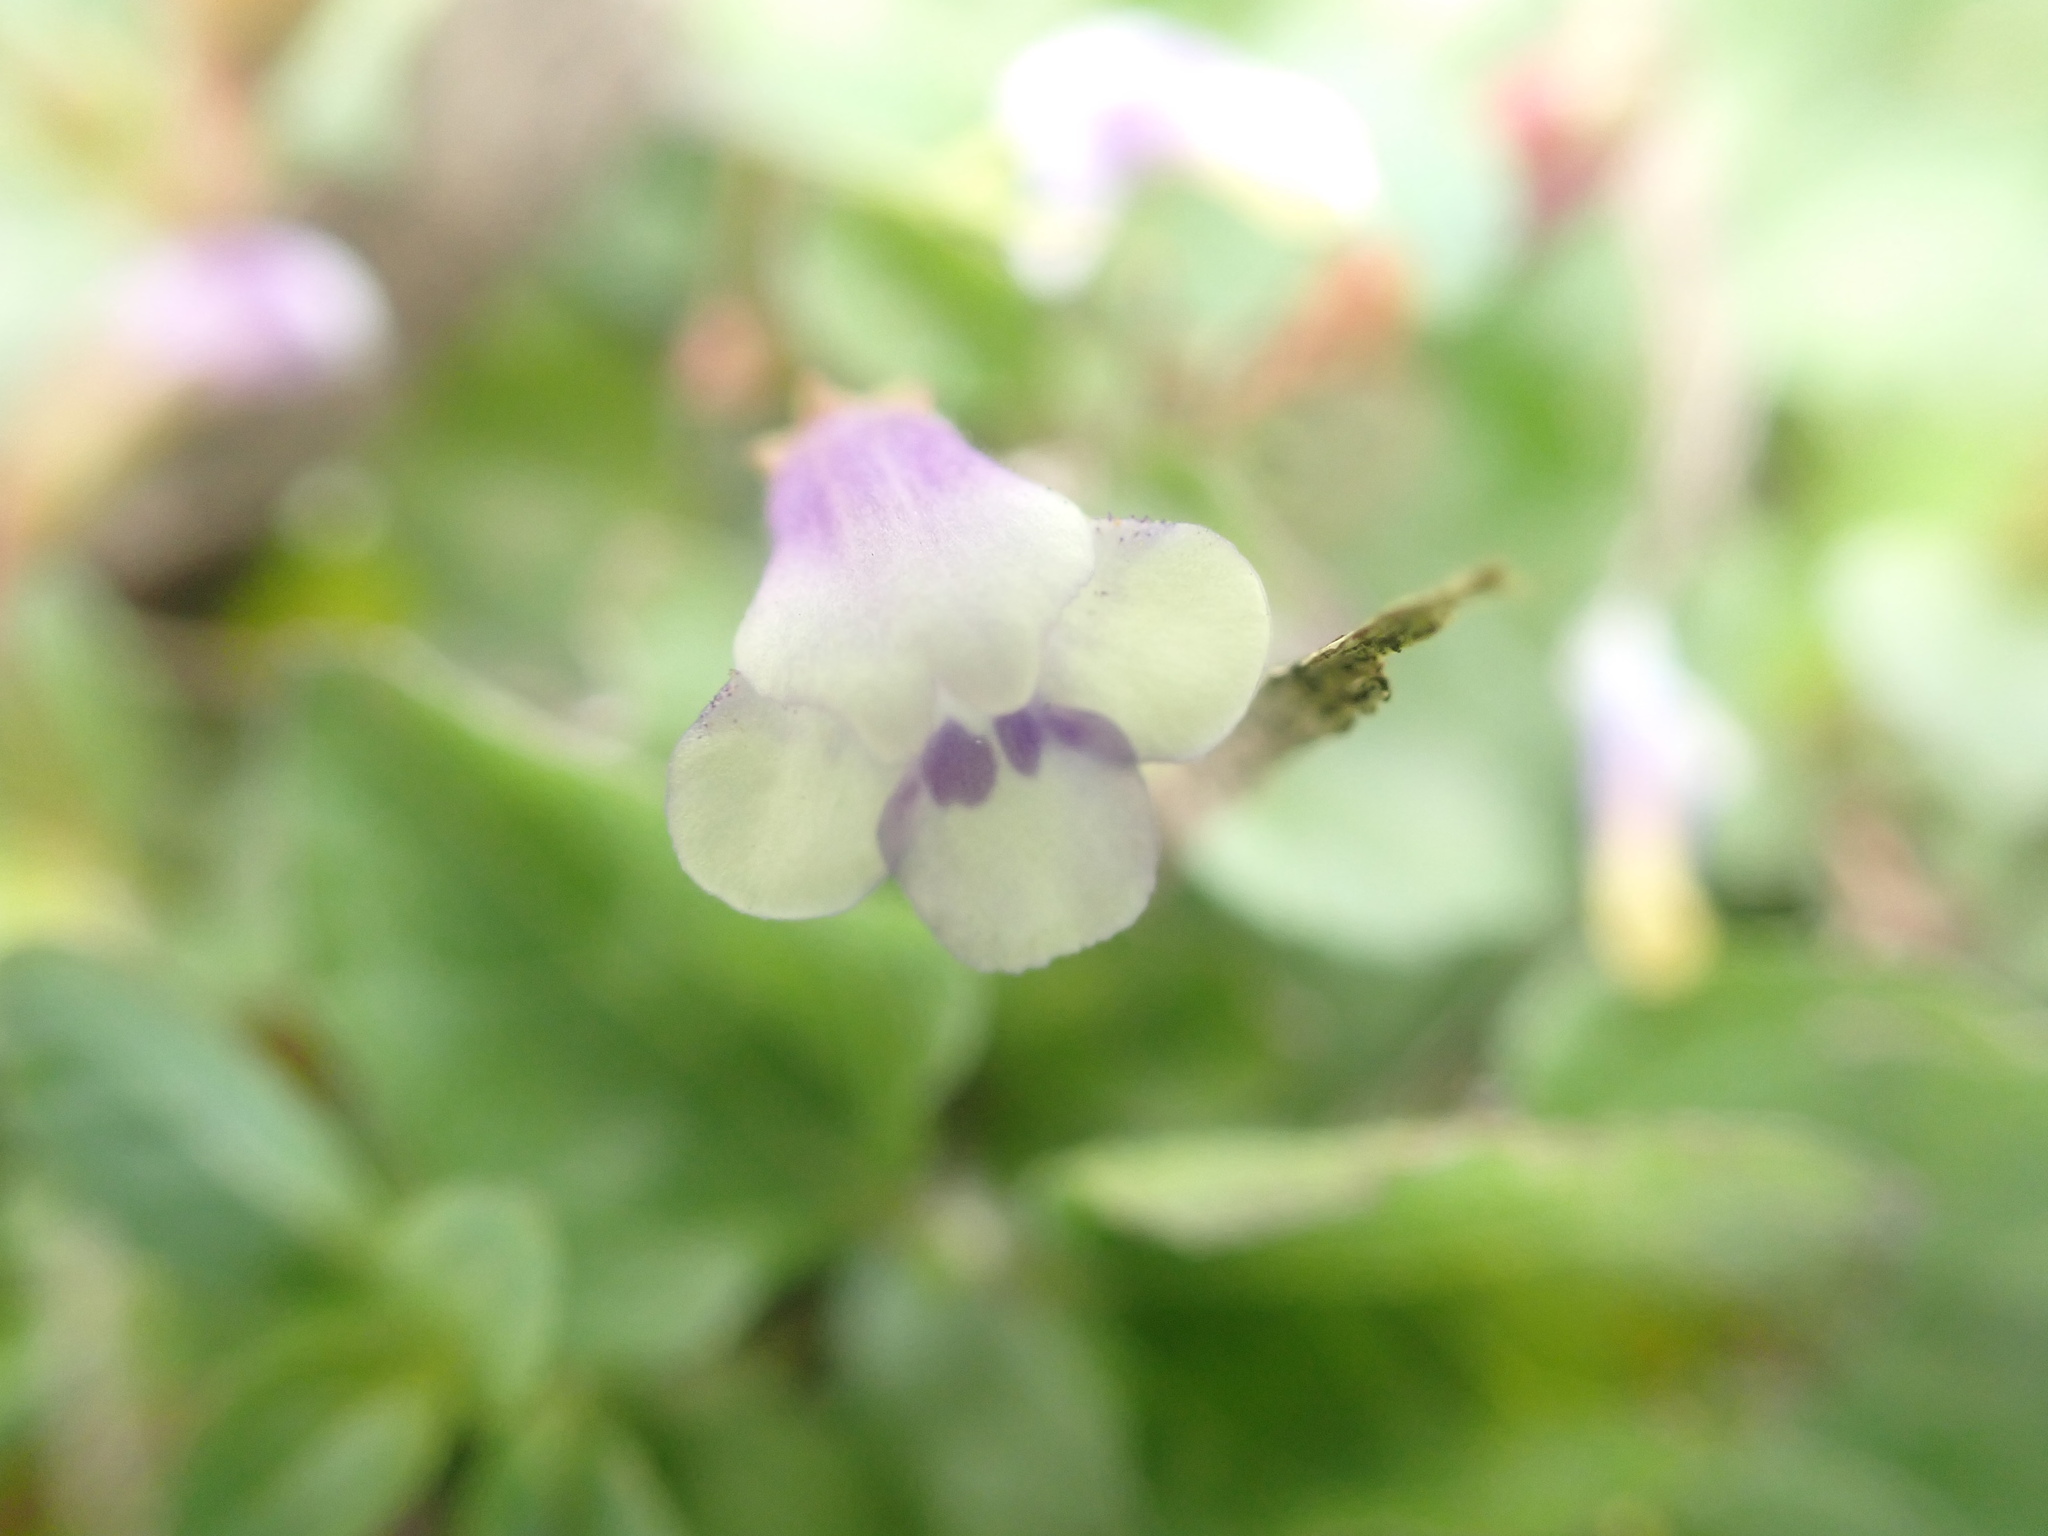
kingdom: Plantae
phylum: Tracheophyta
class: Magnoliopsida
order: Lamiales
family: Linderniaceae
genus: Torenia
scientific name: Torenia crustacea
